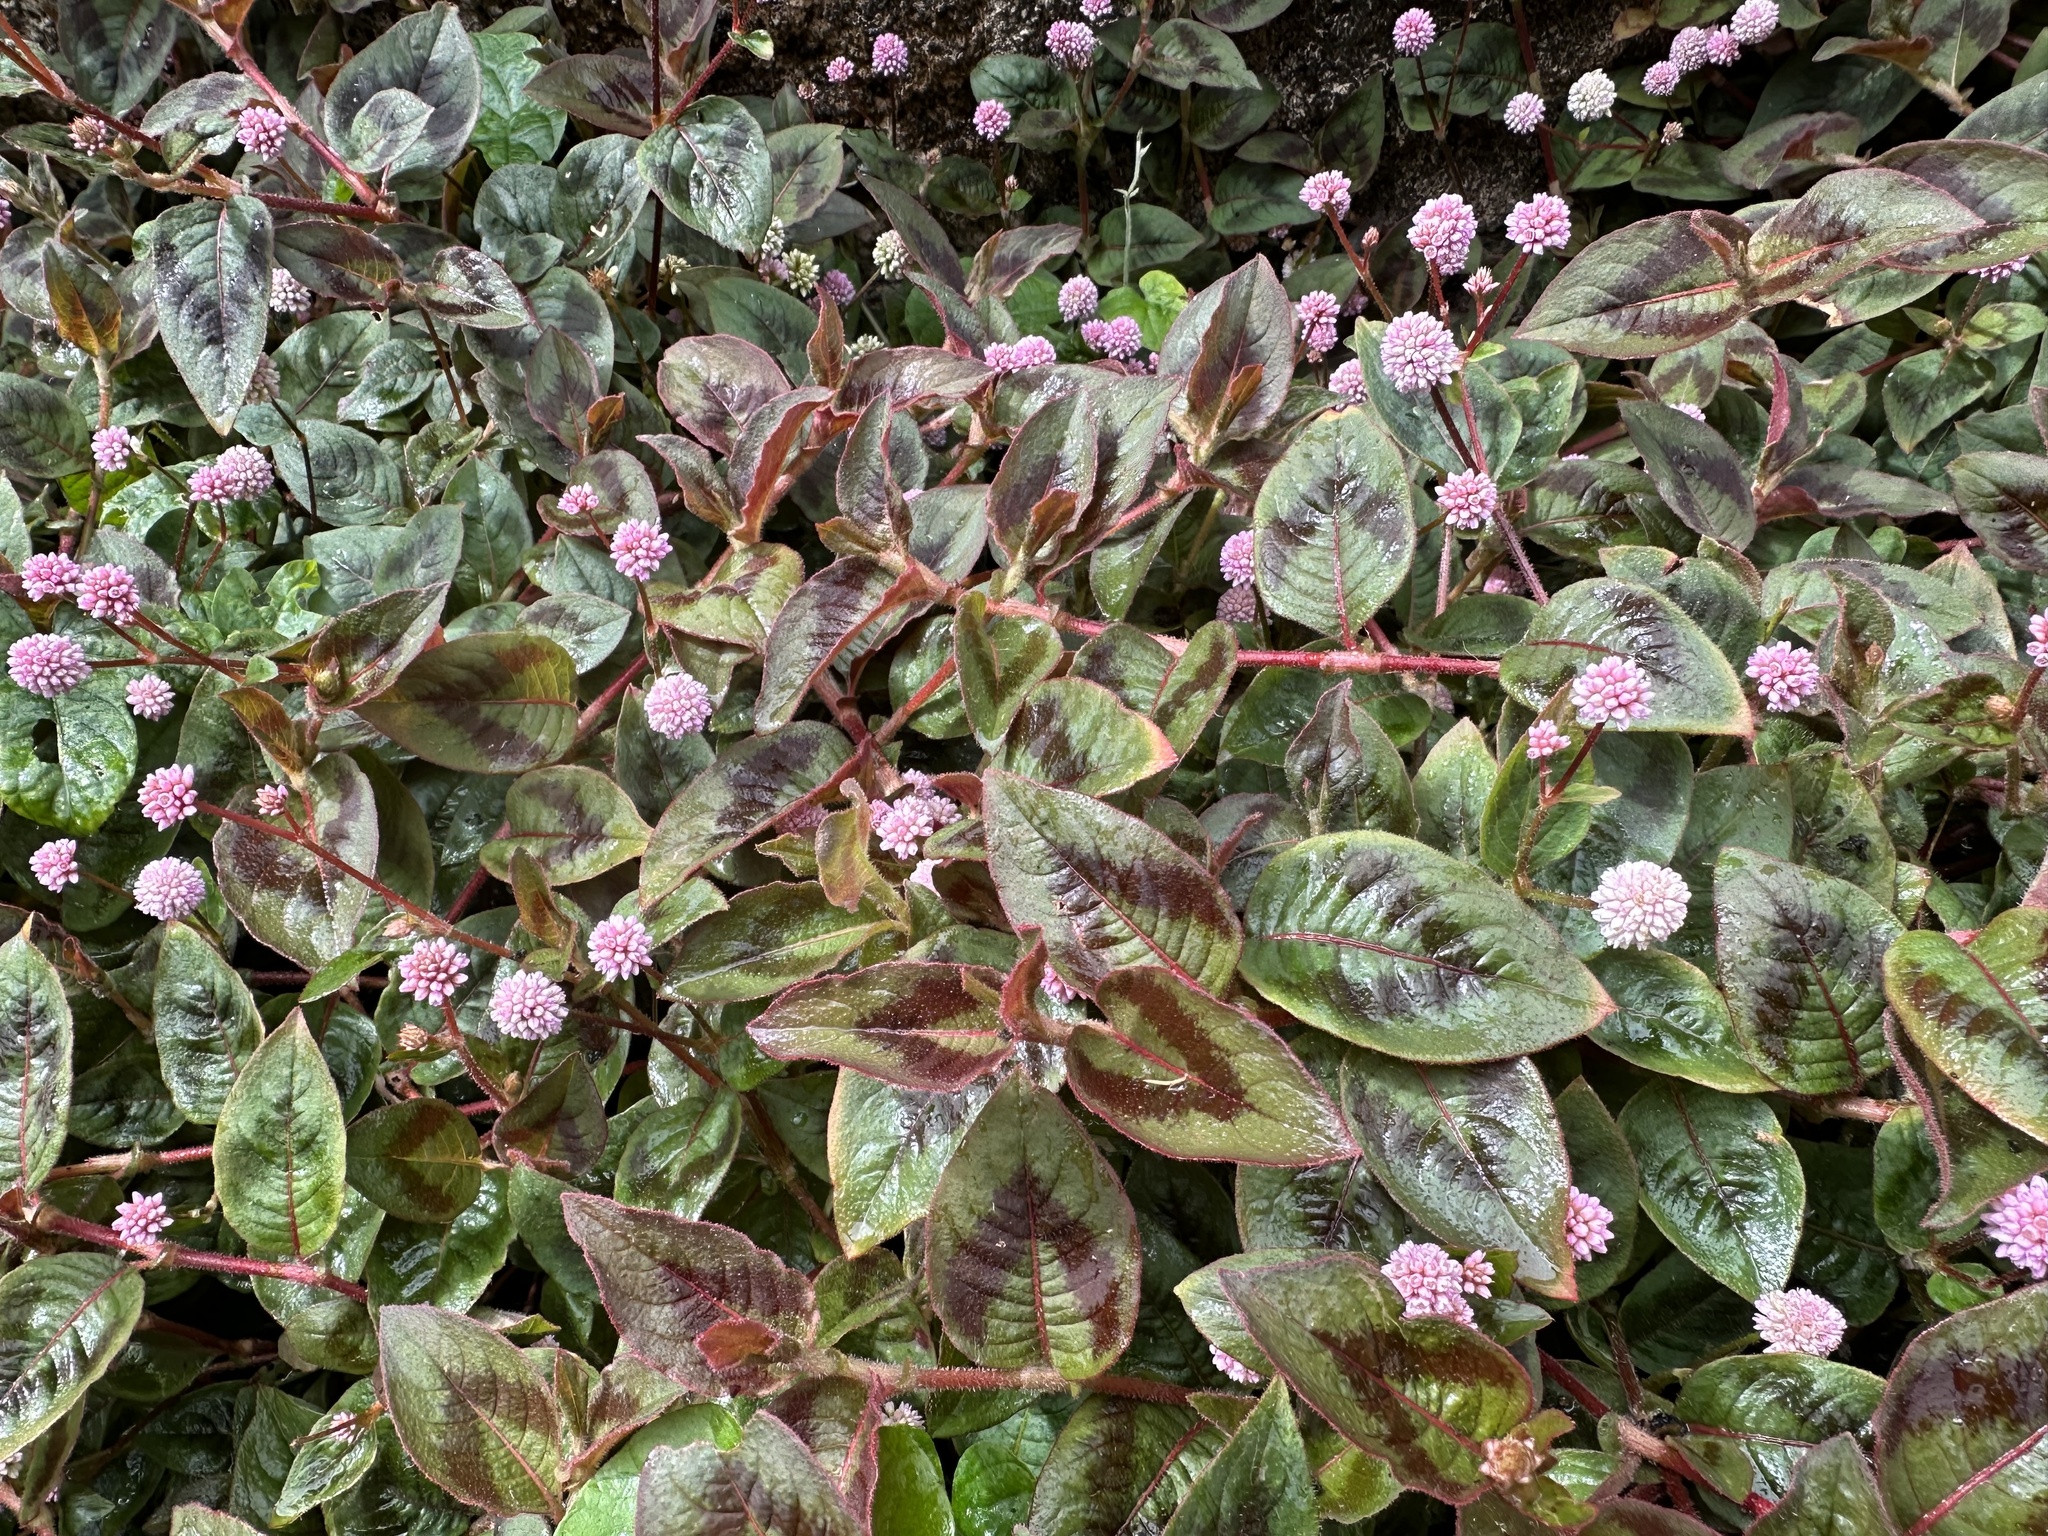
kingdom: Plantae
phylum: Tracheophyta
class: Magnoliopsida
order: Caryophyllales
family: Polygonaceae
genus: Persicaria
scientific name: Persicaria capitata
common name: Pinkhead smartweed
